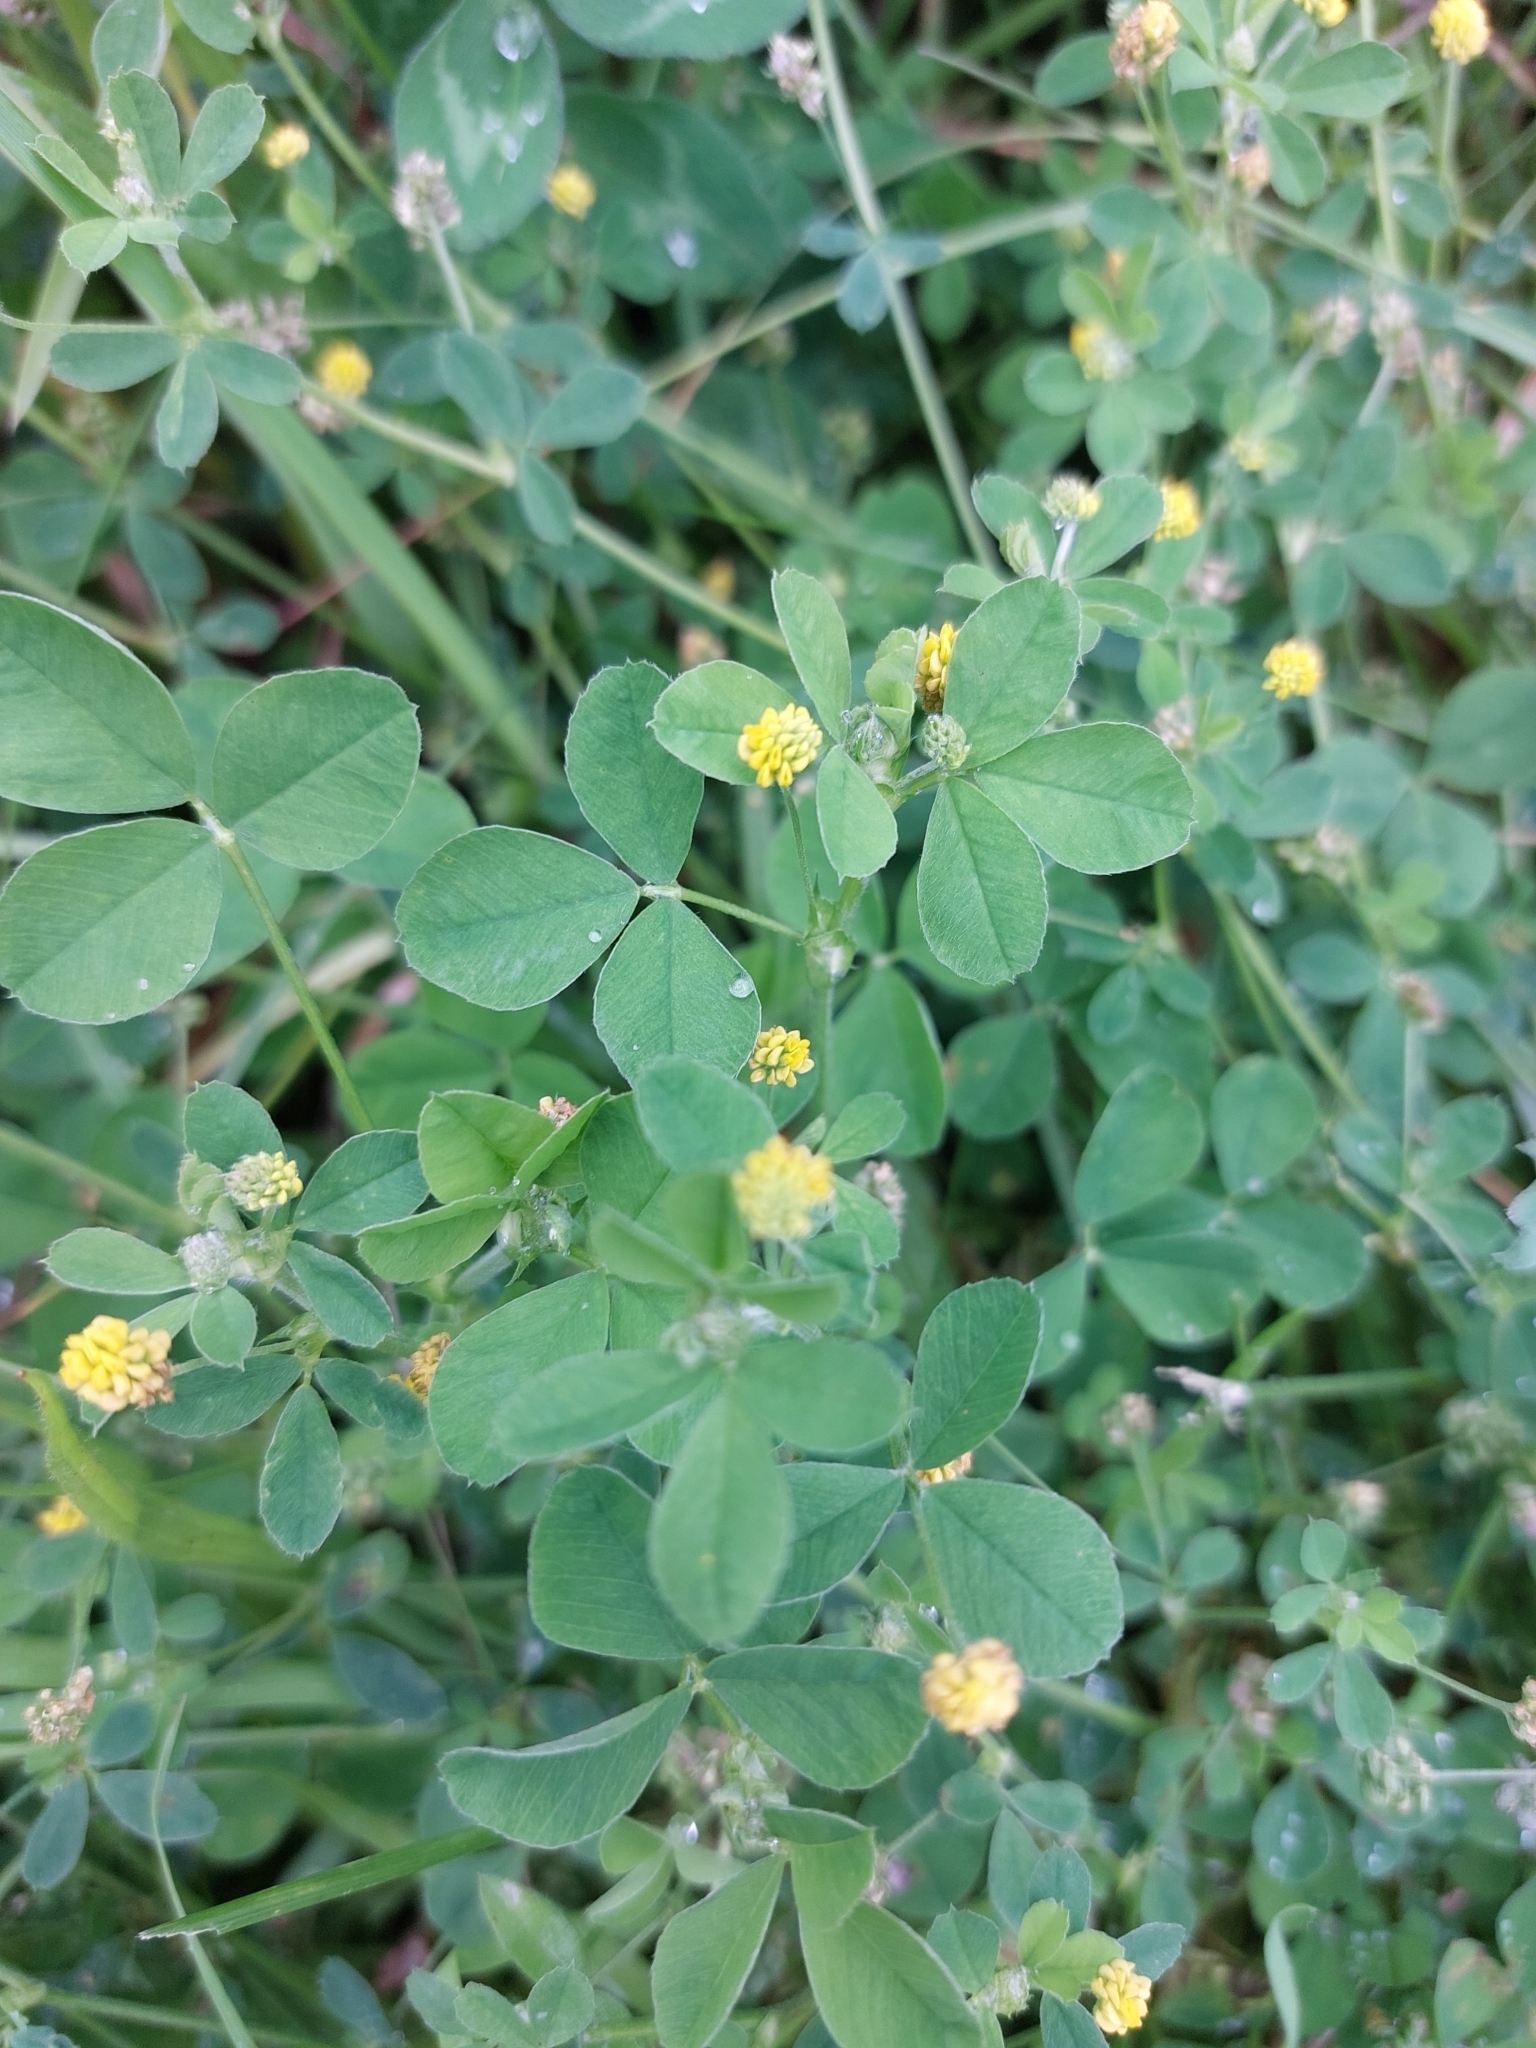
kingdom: Plantae
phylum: Tracheophyta
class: Magnoliopsida
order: Fabales
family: Fabaceae
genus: Medicago
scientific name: Medicago lupulina
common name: Black medick
